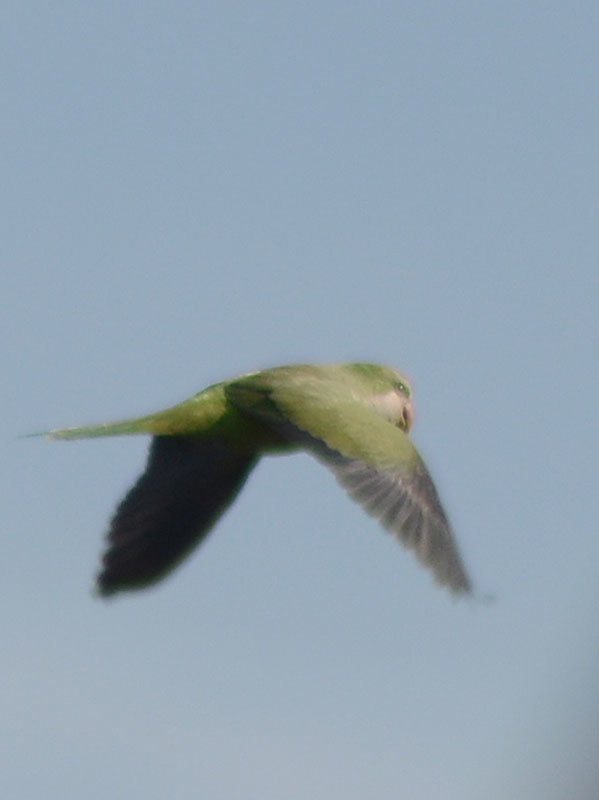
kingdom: Animalia
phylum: Chordata
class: Aves
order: Psittaciformes
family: Psittacidae
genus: Myiopsitta
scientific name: Myiopsitta monachus
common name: Monk parakeet
